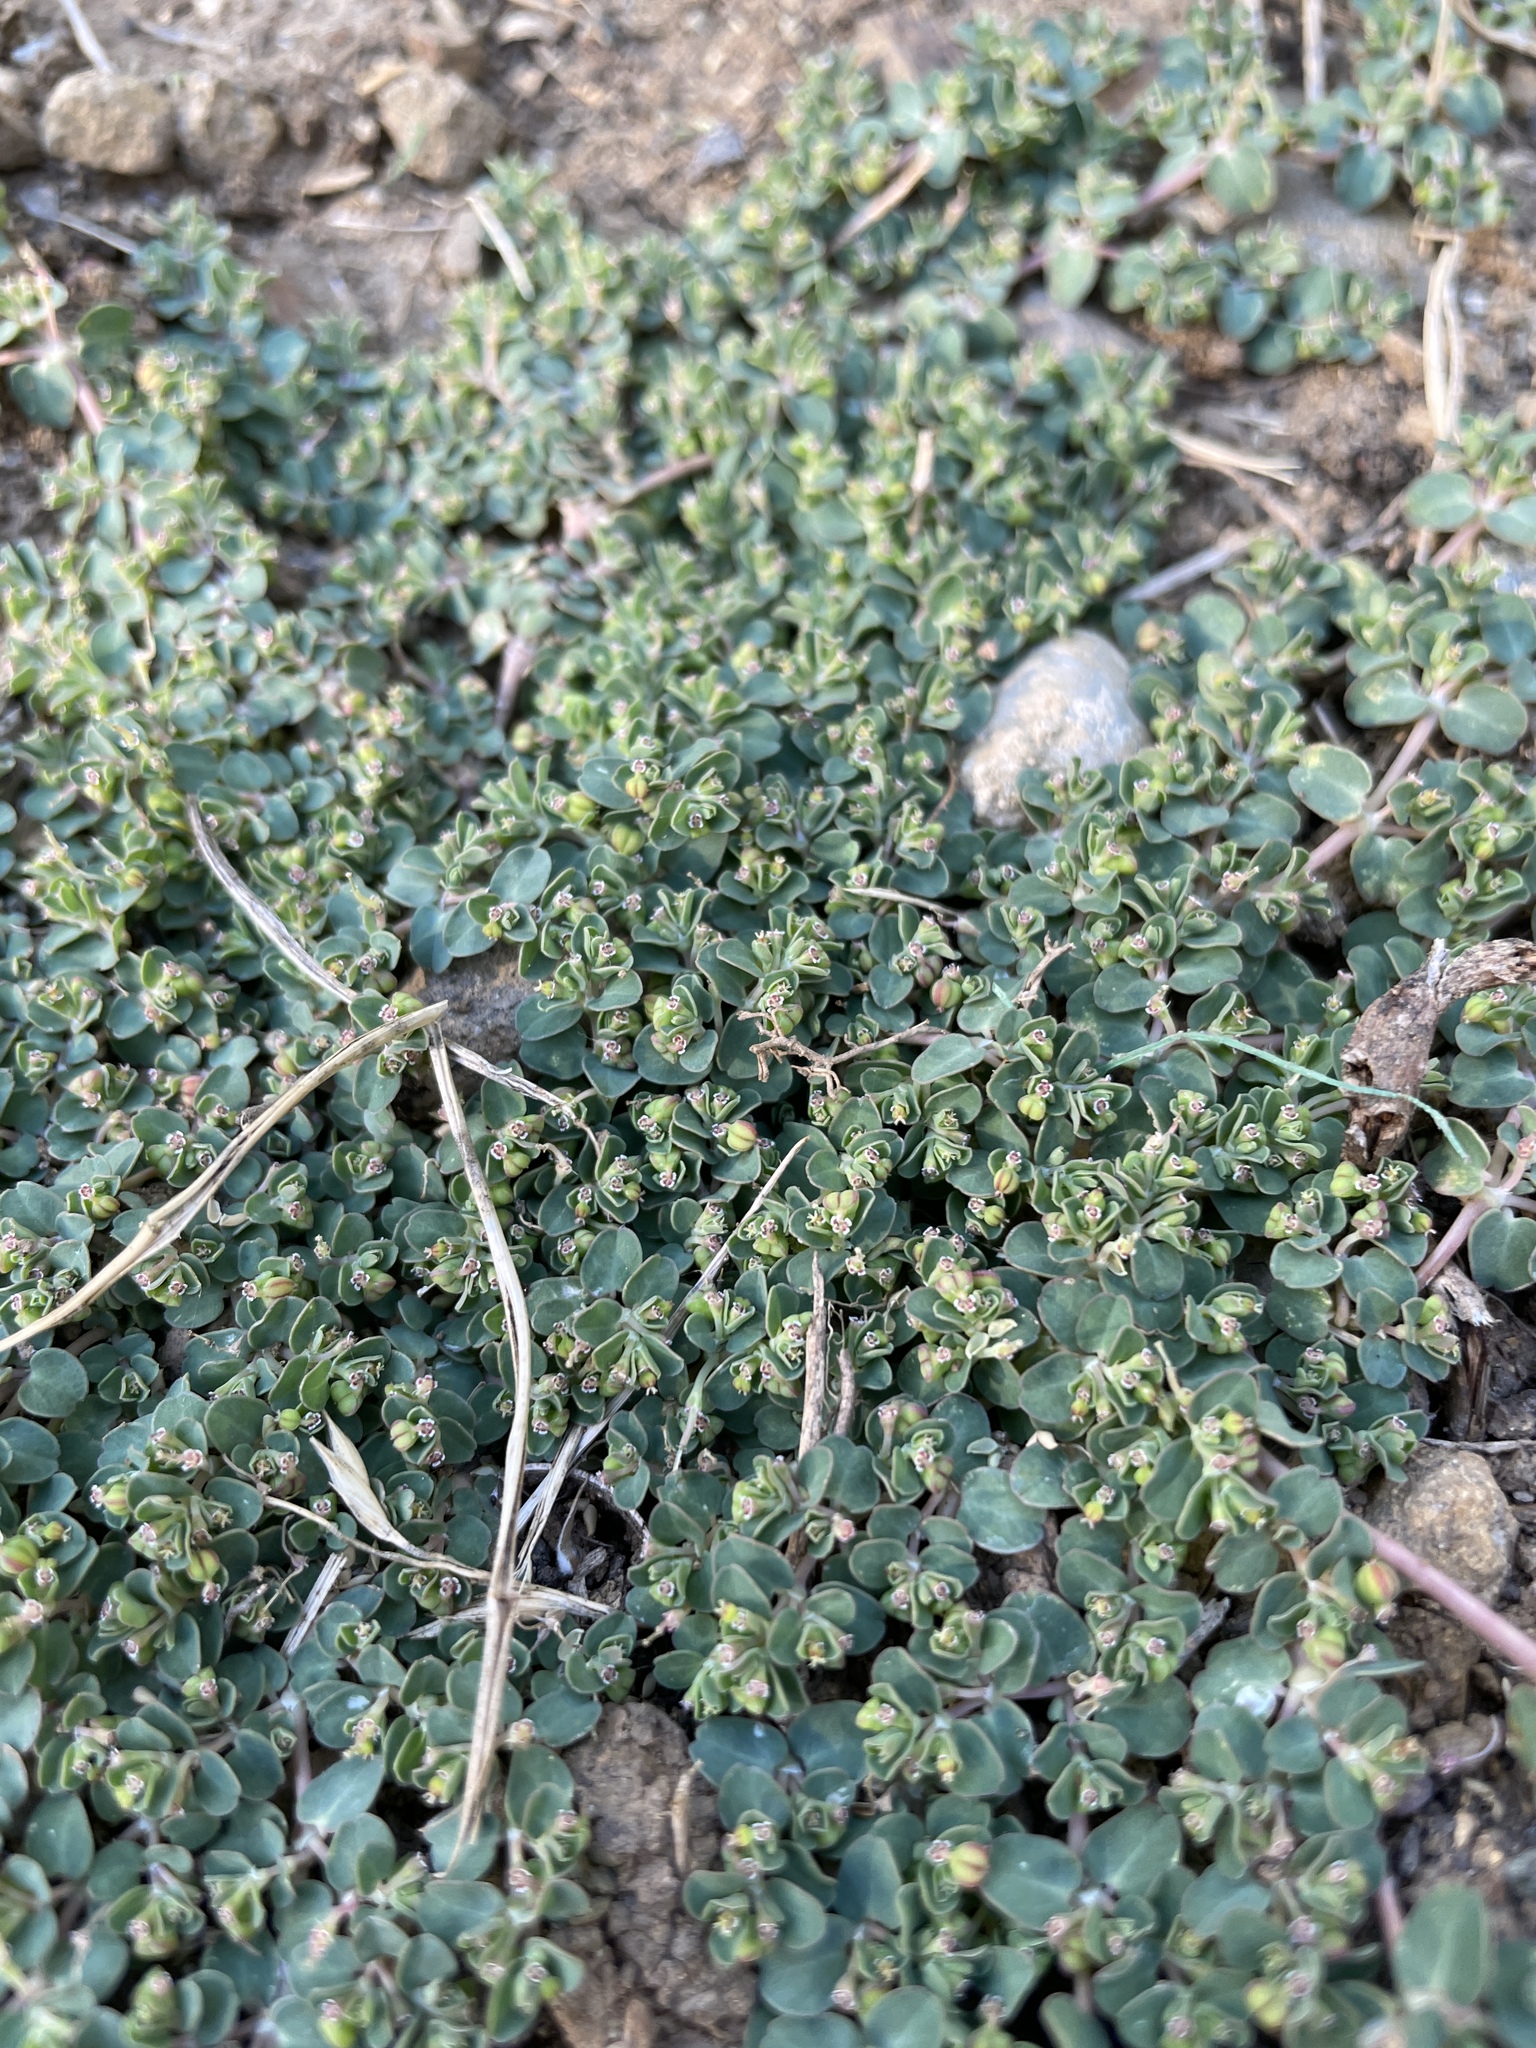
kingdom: Plantae
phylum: Tracheophyta
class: Magnoliopsida
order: Malpighiales
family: Euphorbiaceae
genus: Euphorbia
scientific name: Euphorbia serpens
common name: Matted sandmat
